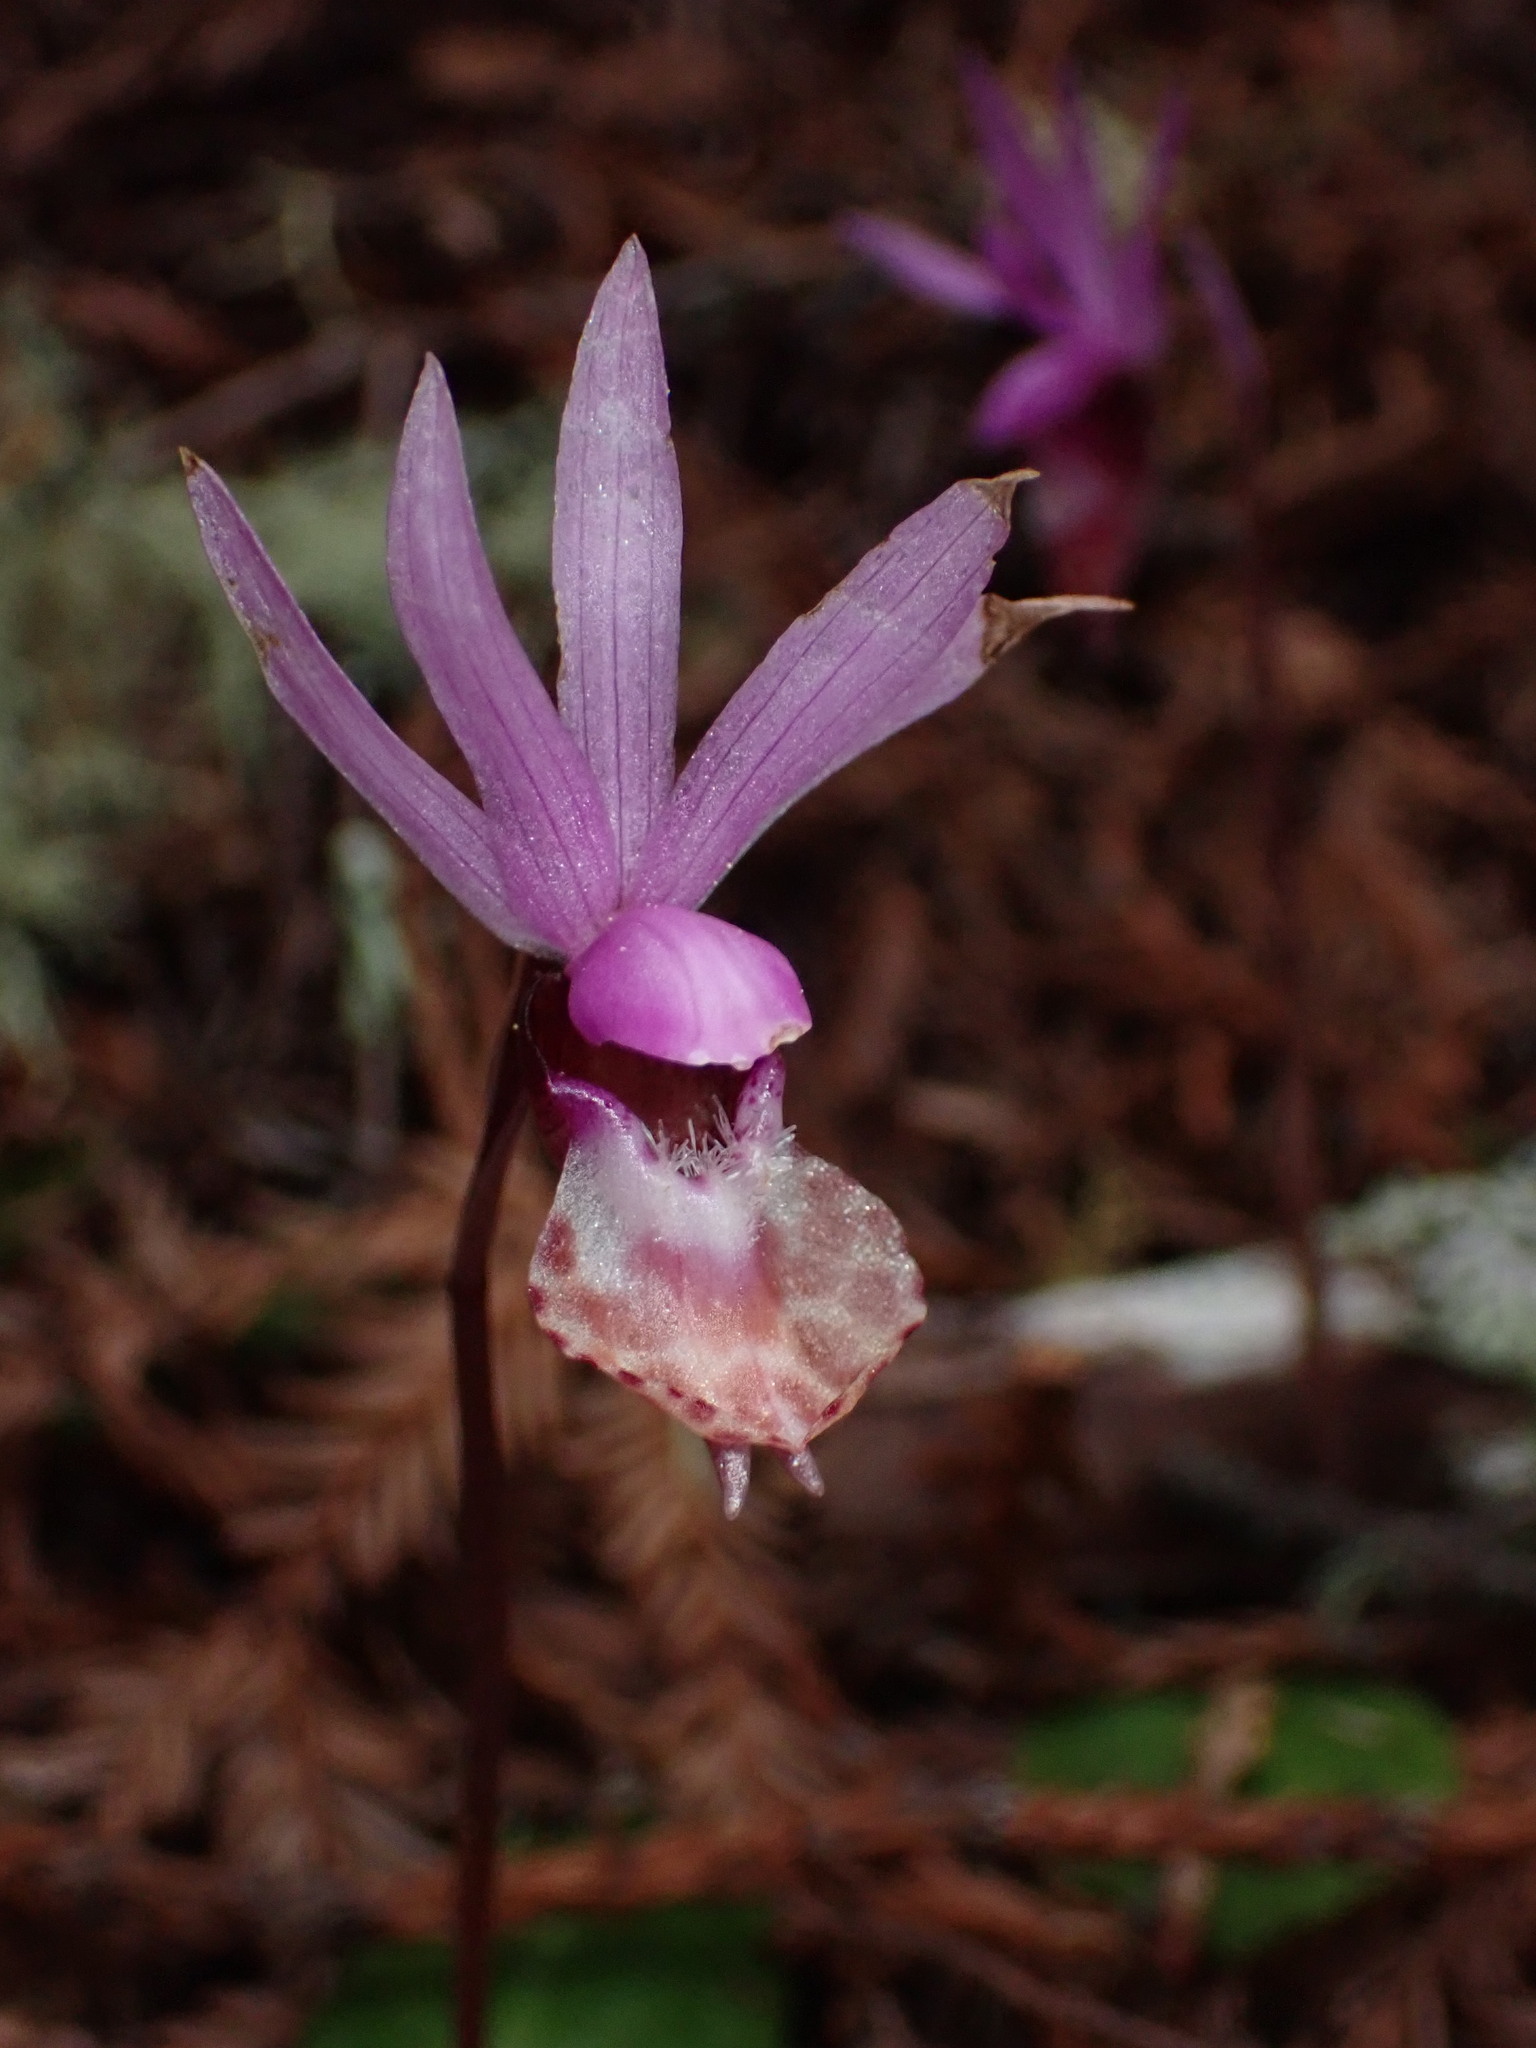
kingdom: Plantae
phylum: Tracheophyta
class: Liliopsida
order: Asparagales
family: Orchidaceae
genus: Calypso
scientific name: Calypso bulbosa
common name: Calypso
